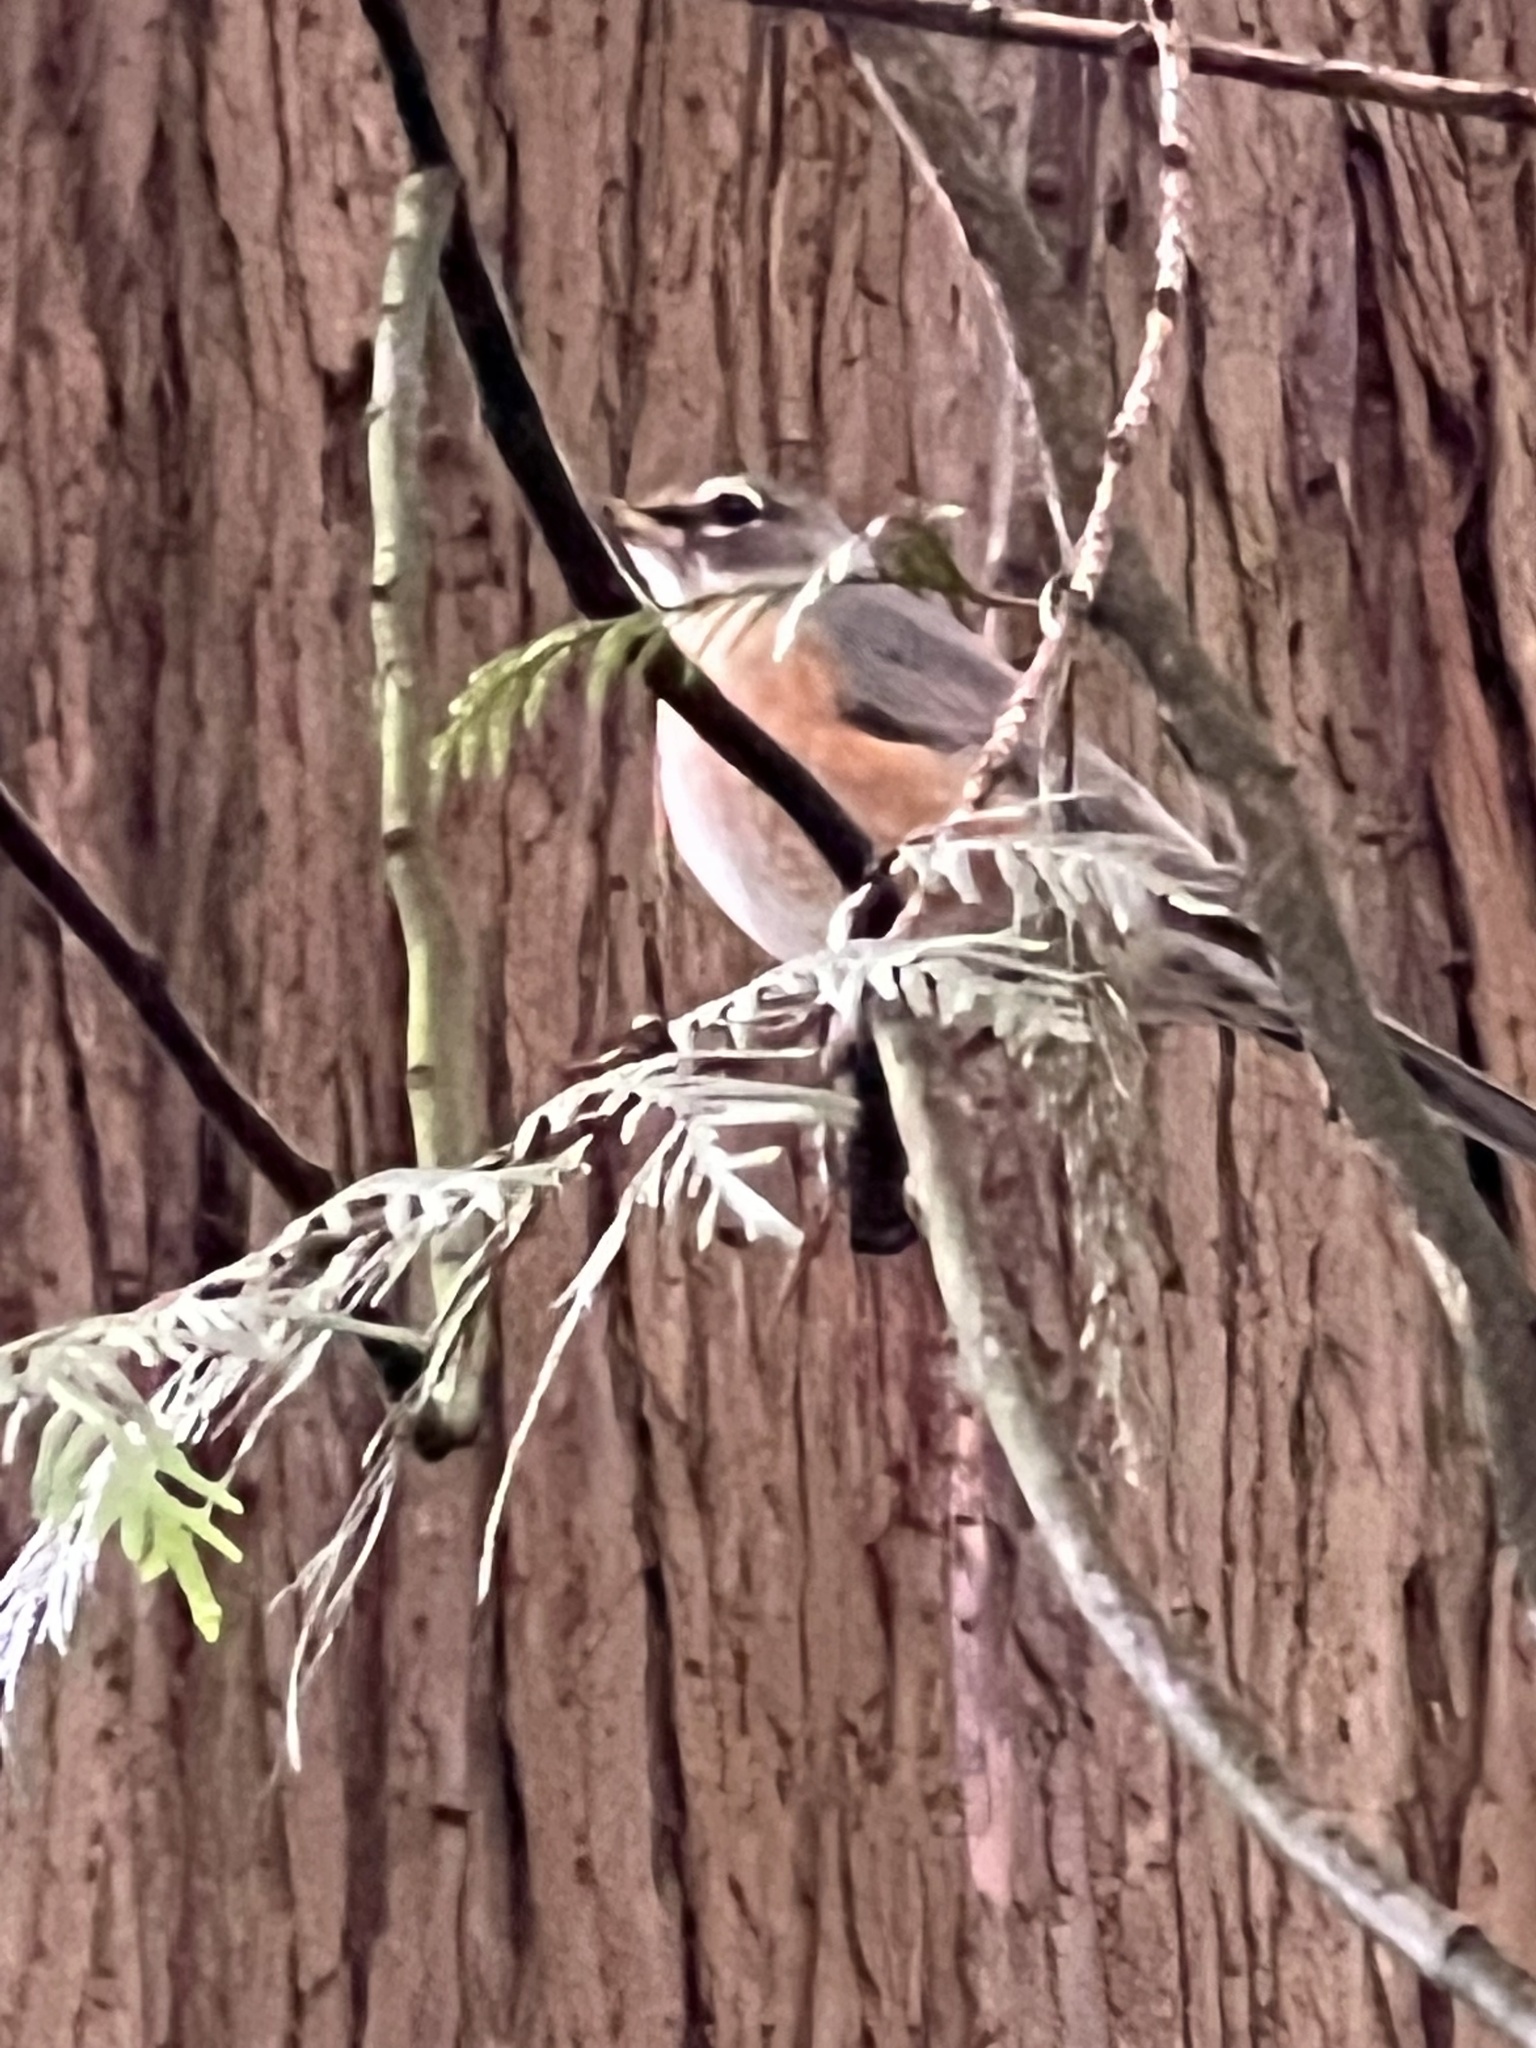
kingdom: Animalia
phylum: Chordata
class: Aves
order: Passeriformes
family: Turdidae
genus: Turdus
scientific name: Turdus migratorius
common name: American robin
